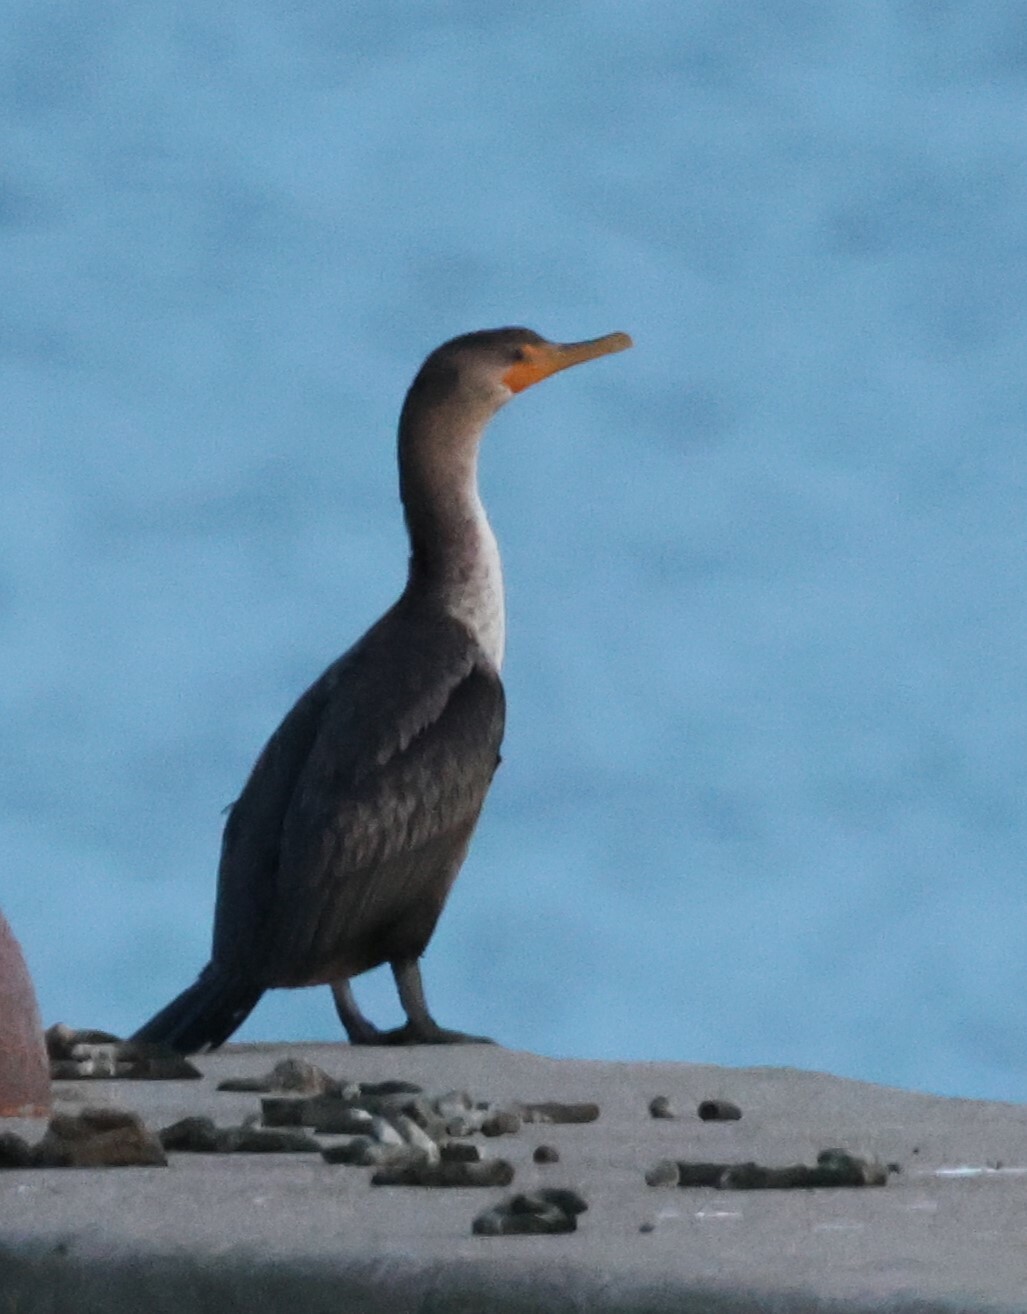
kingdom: Animalia
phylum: Chordata
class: Aves
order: Suliformes
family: Phalacrocoracidae
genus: Phalacrocorax
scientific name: Phalacrocorax auritus
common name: Double-crested cormorant
